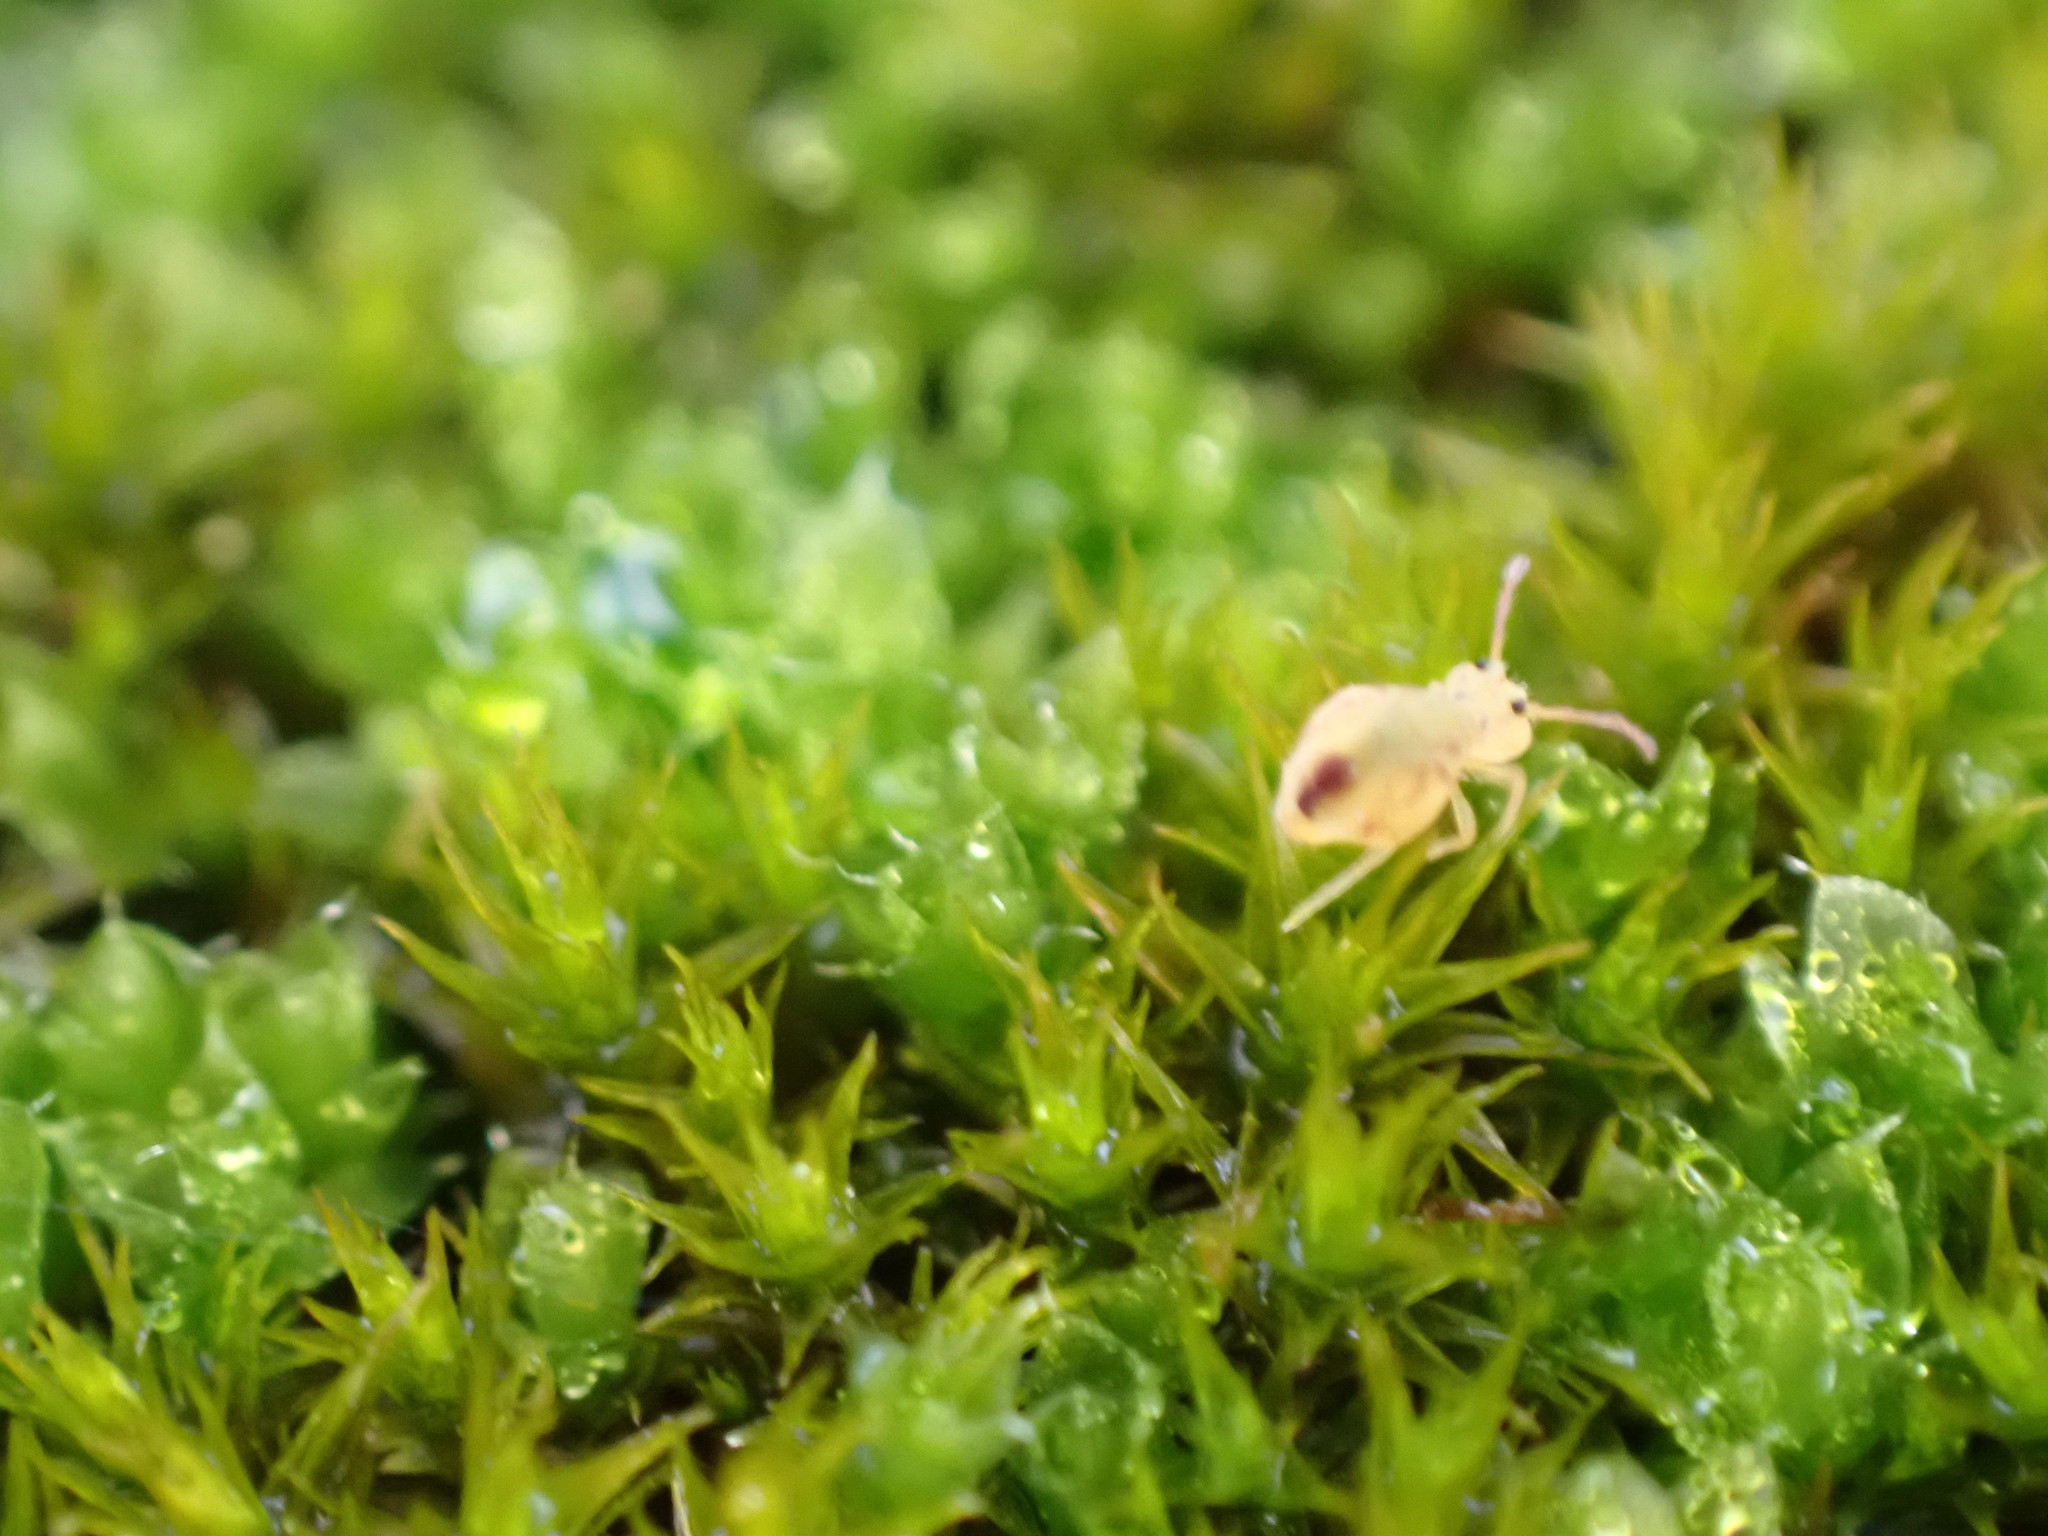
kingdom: Animalia
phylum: Arthropoda
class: Collembola
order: Symphypleona
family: Dicyrtomidae
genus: Dicyrtomina
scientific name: Dicyrtomina
